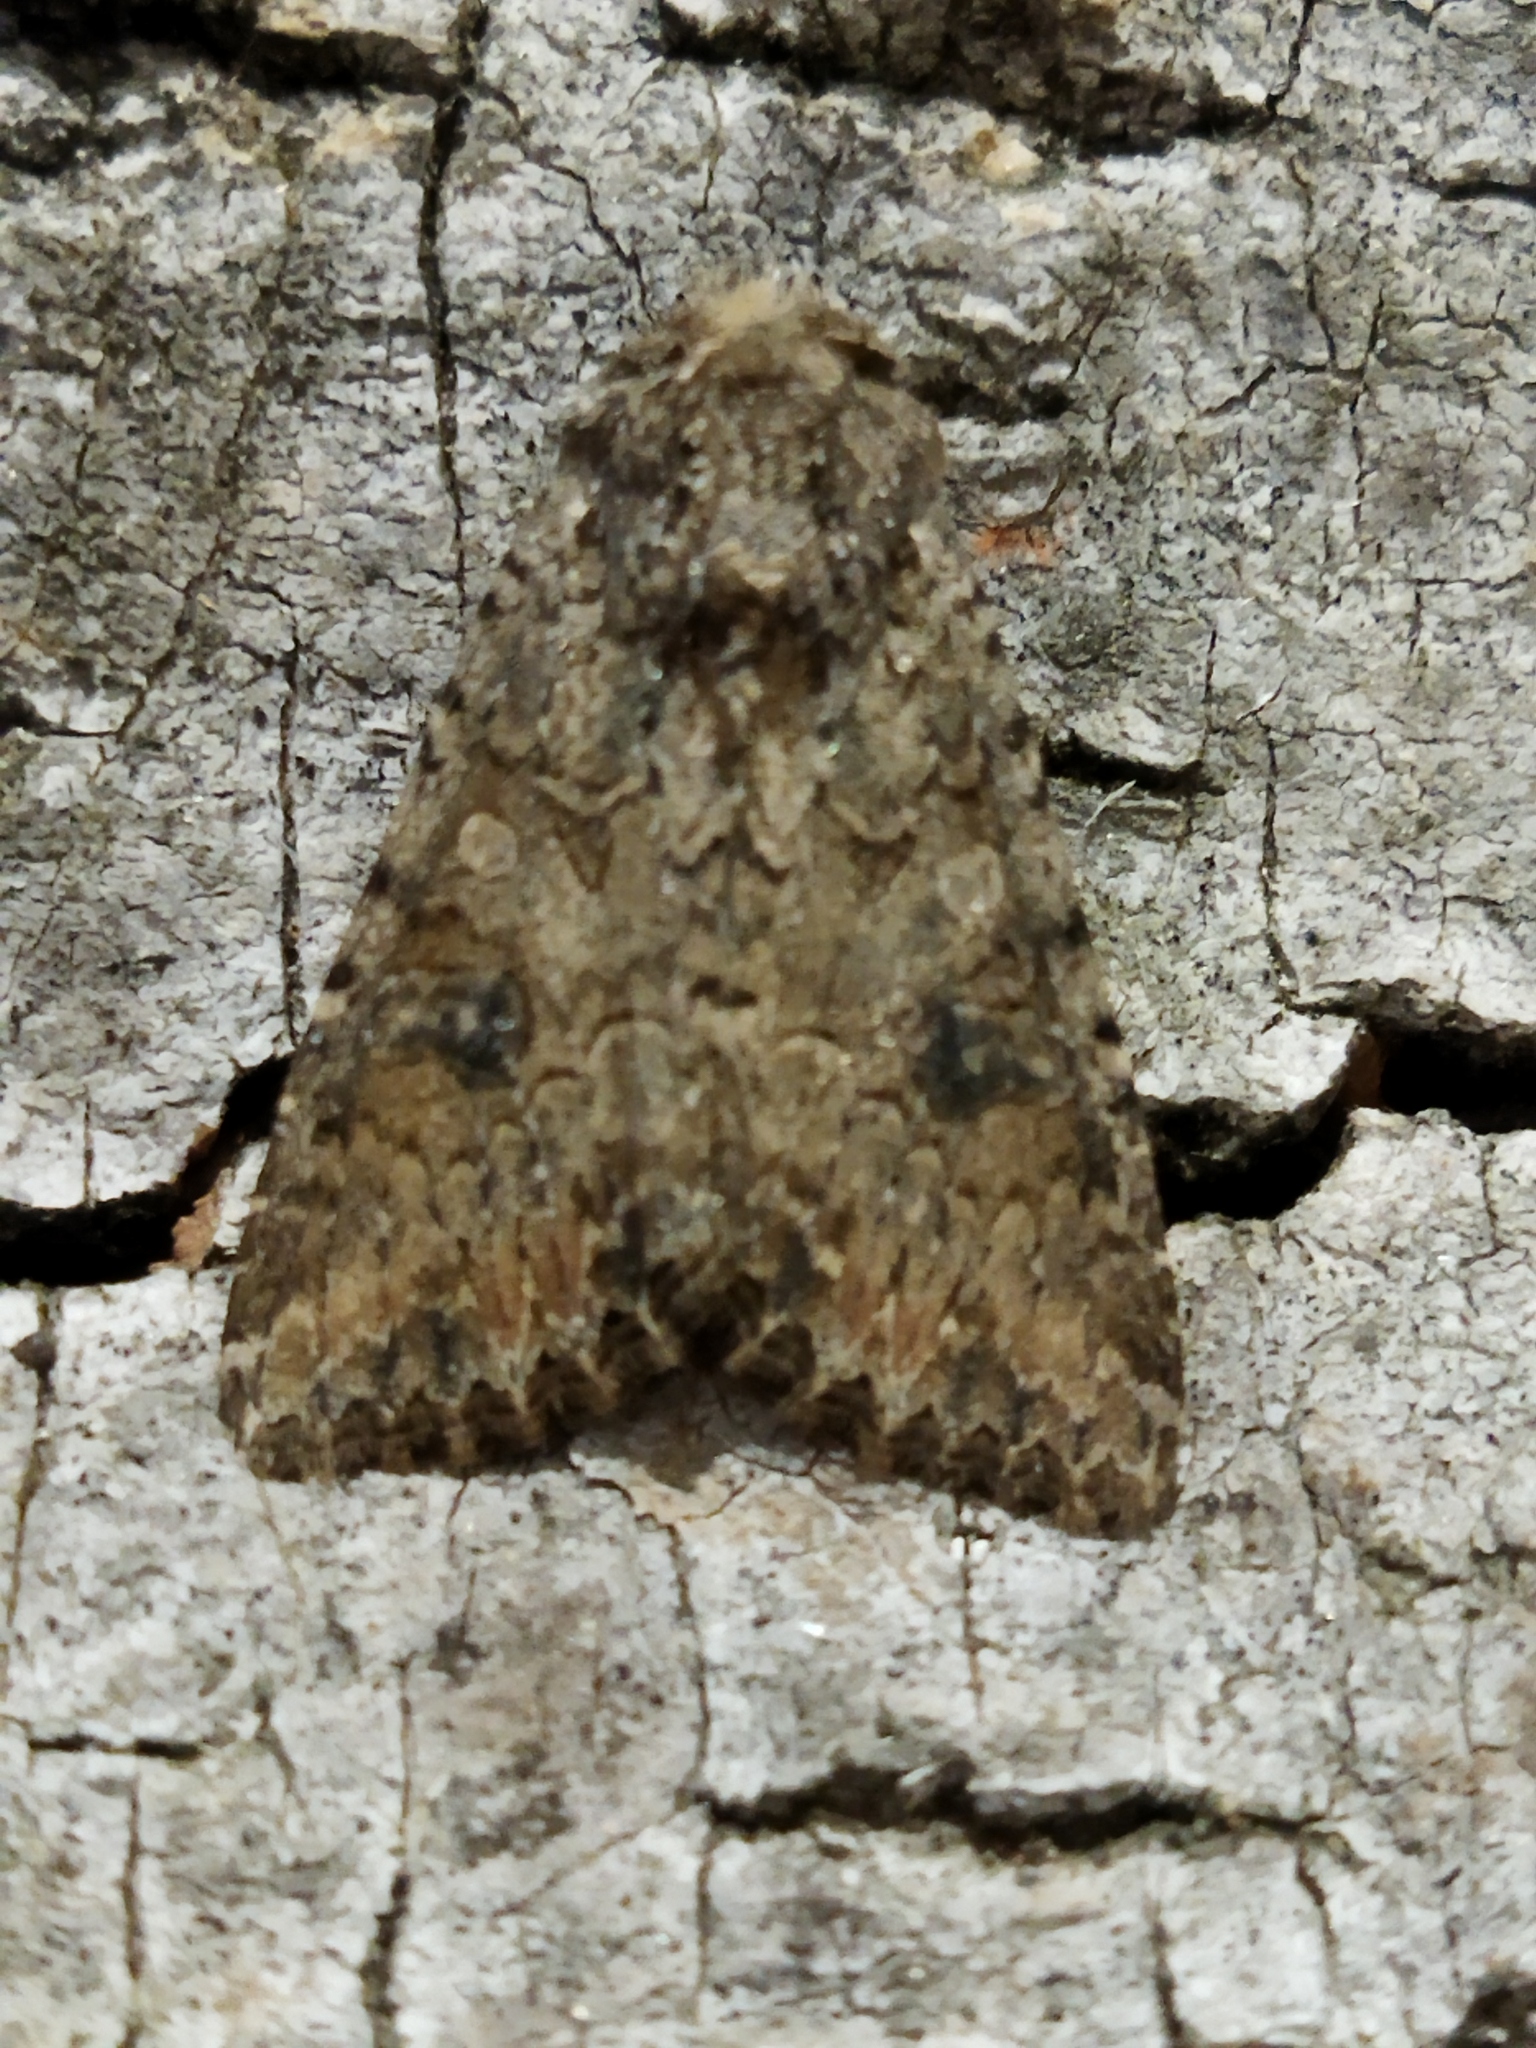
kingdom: Animalia
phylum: Arthropoda
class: Insecta
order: Lepidoptera
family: Noctuidae
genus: Anarta
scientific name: Anarta trifolii
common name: Clover cutworm moth
